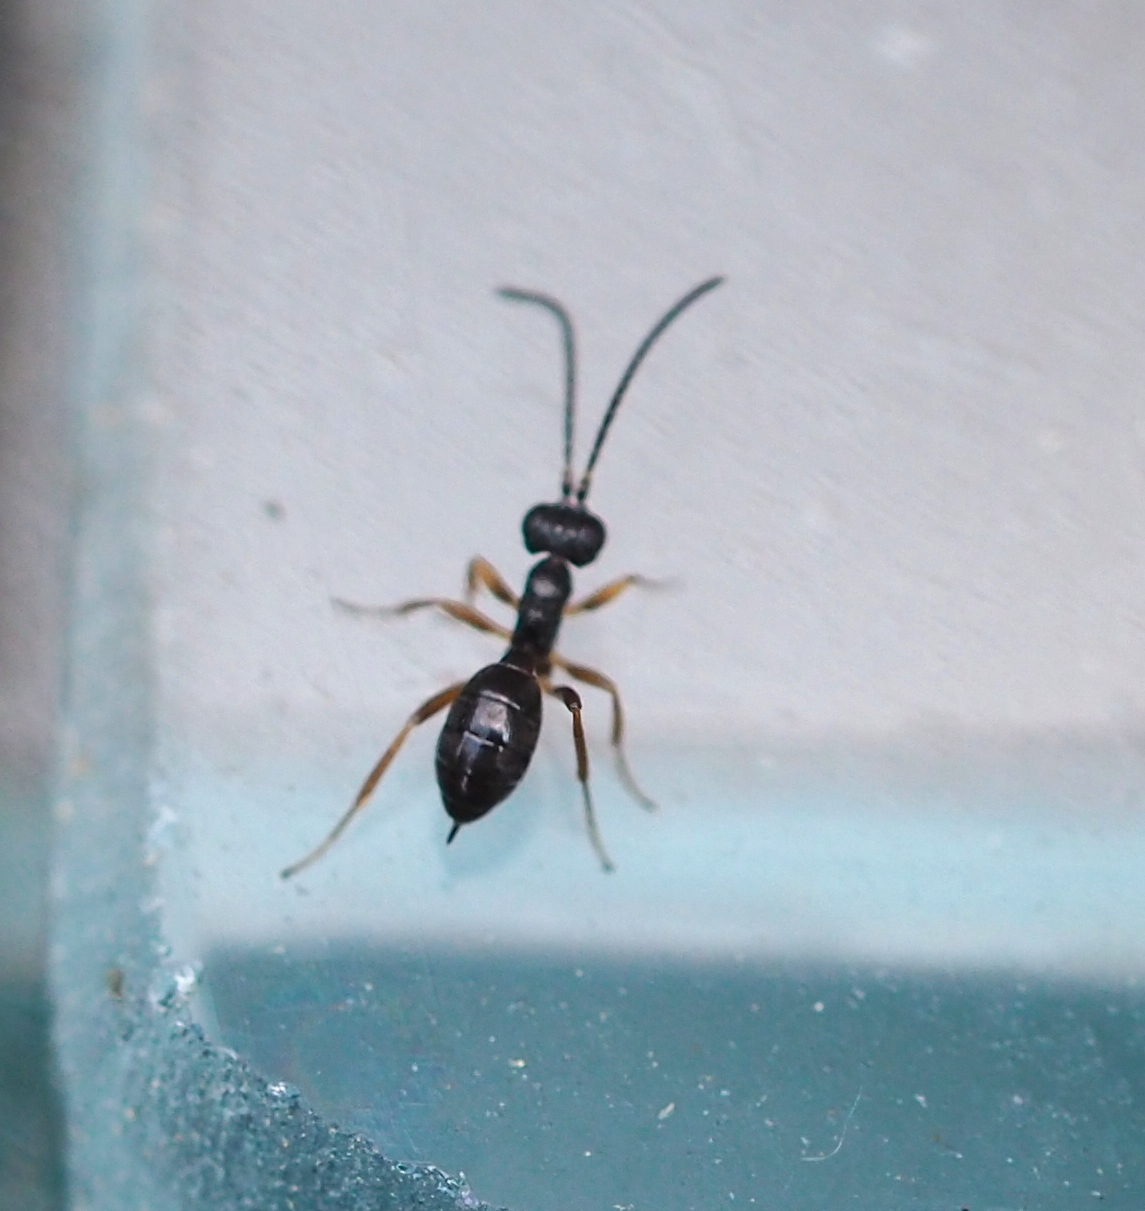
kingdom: Animalia
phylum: Arthropoda
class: Insecta
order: Hymenoptera
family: Ichneumonidae
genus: Gelis
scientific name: Gelis
